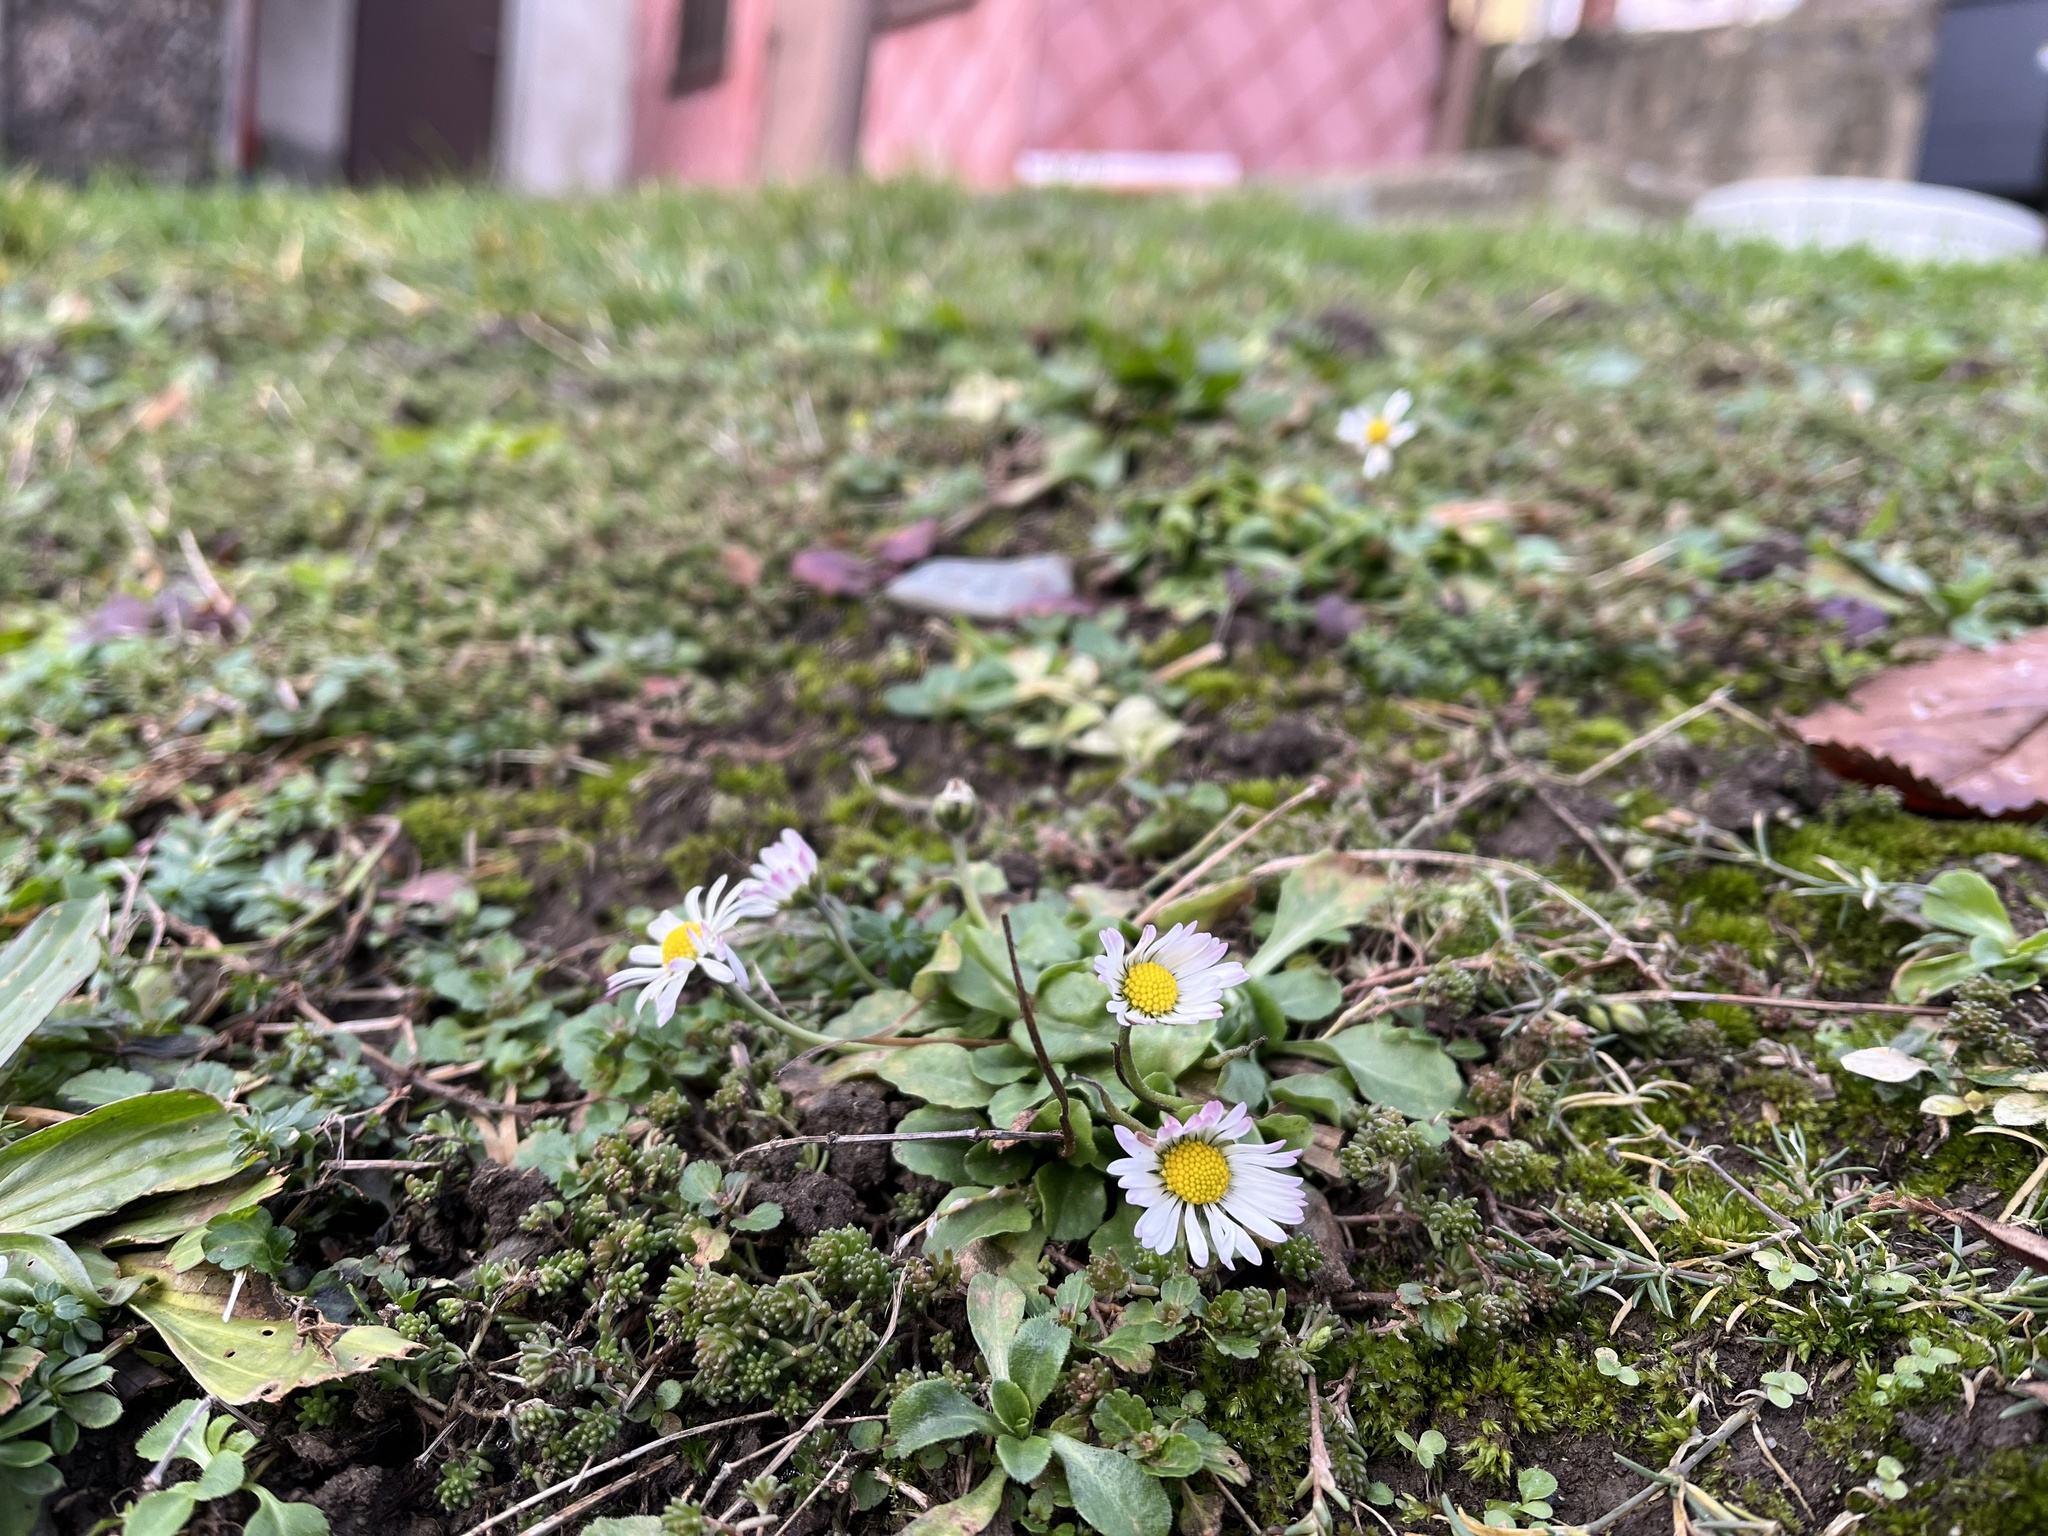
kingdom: Plantae
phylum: Tracheophyta
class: Magnoliopsida
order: Asterales
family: Asteraceae
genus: Bellis
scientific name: Bellis perennis
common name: Lawndaisy
